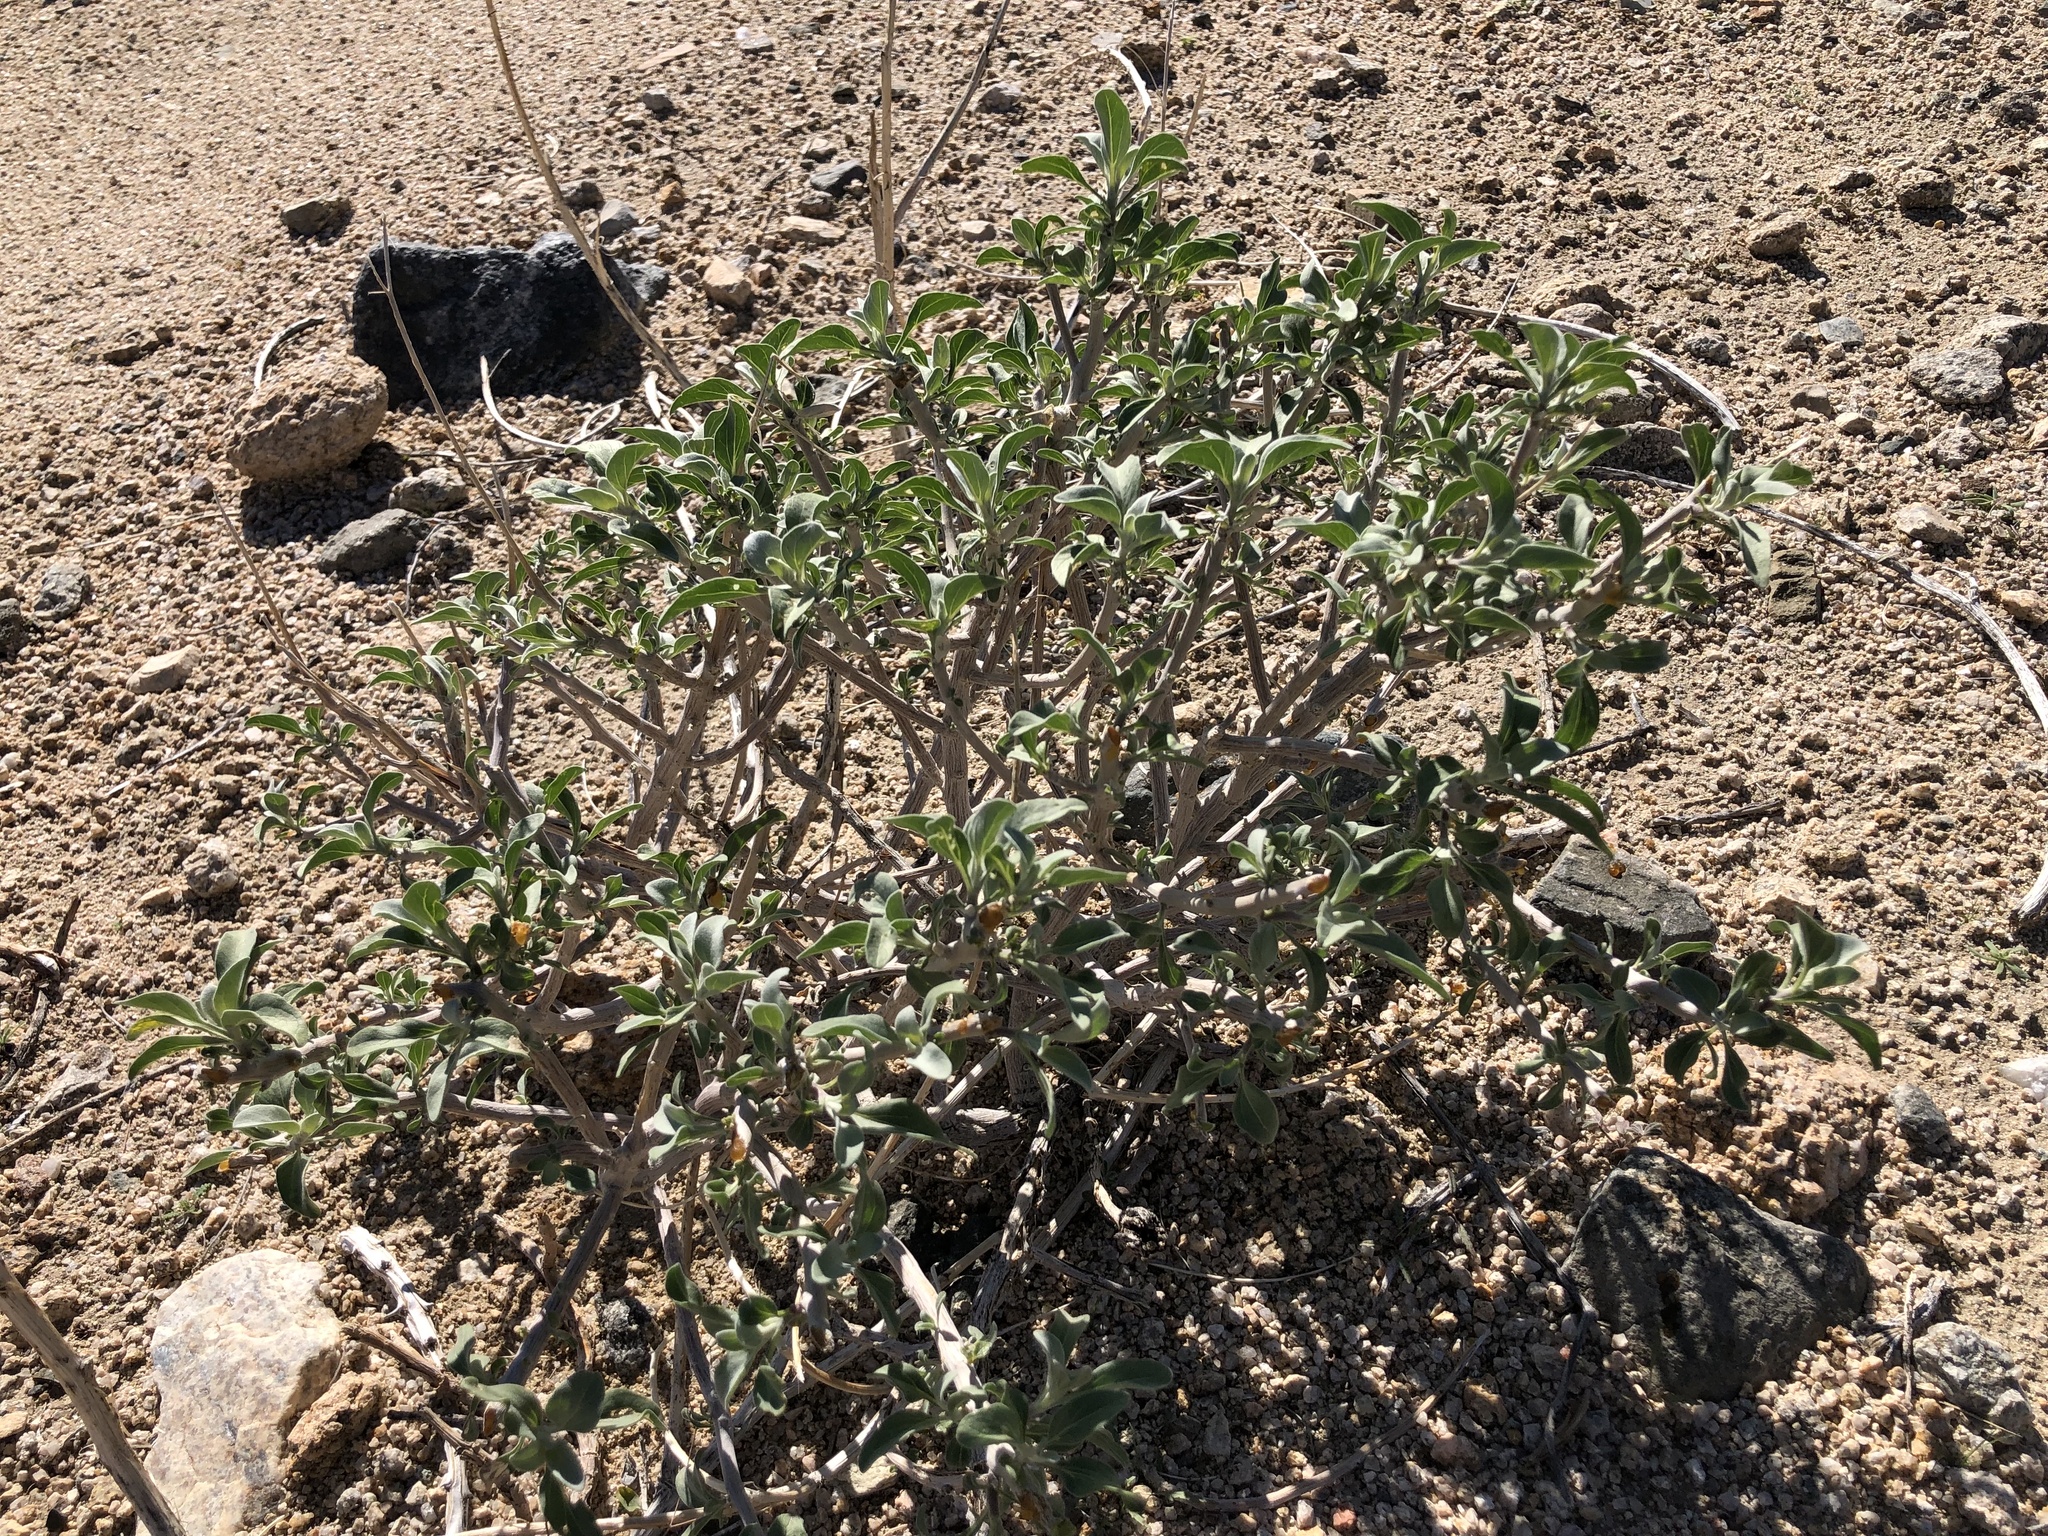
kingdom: Plantae
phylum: Tracheophyta
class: Magnoliopsida
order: Asterales
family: Asteraceae
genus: Encelia
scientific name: Encelia farinosa
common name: Brittlebush
